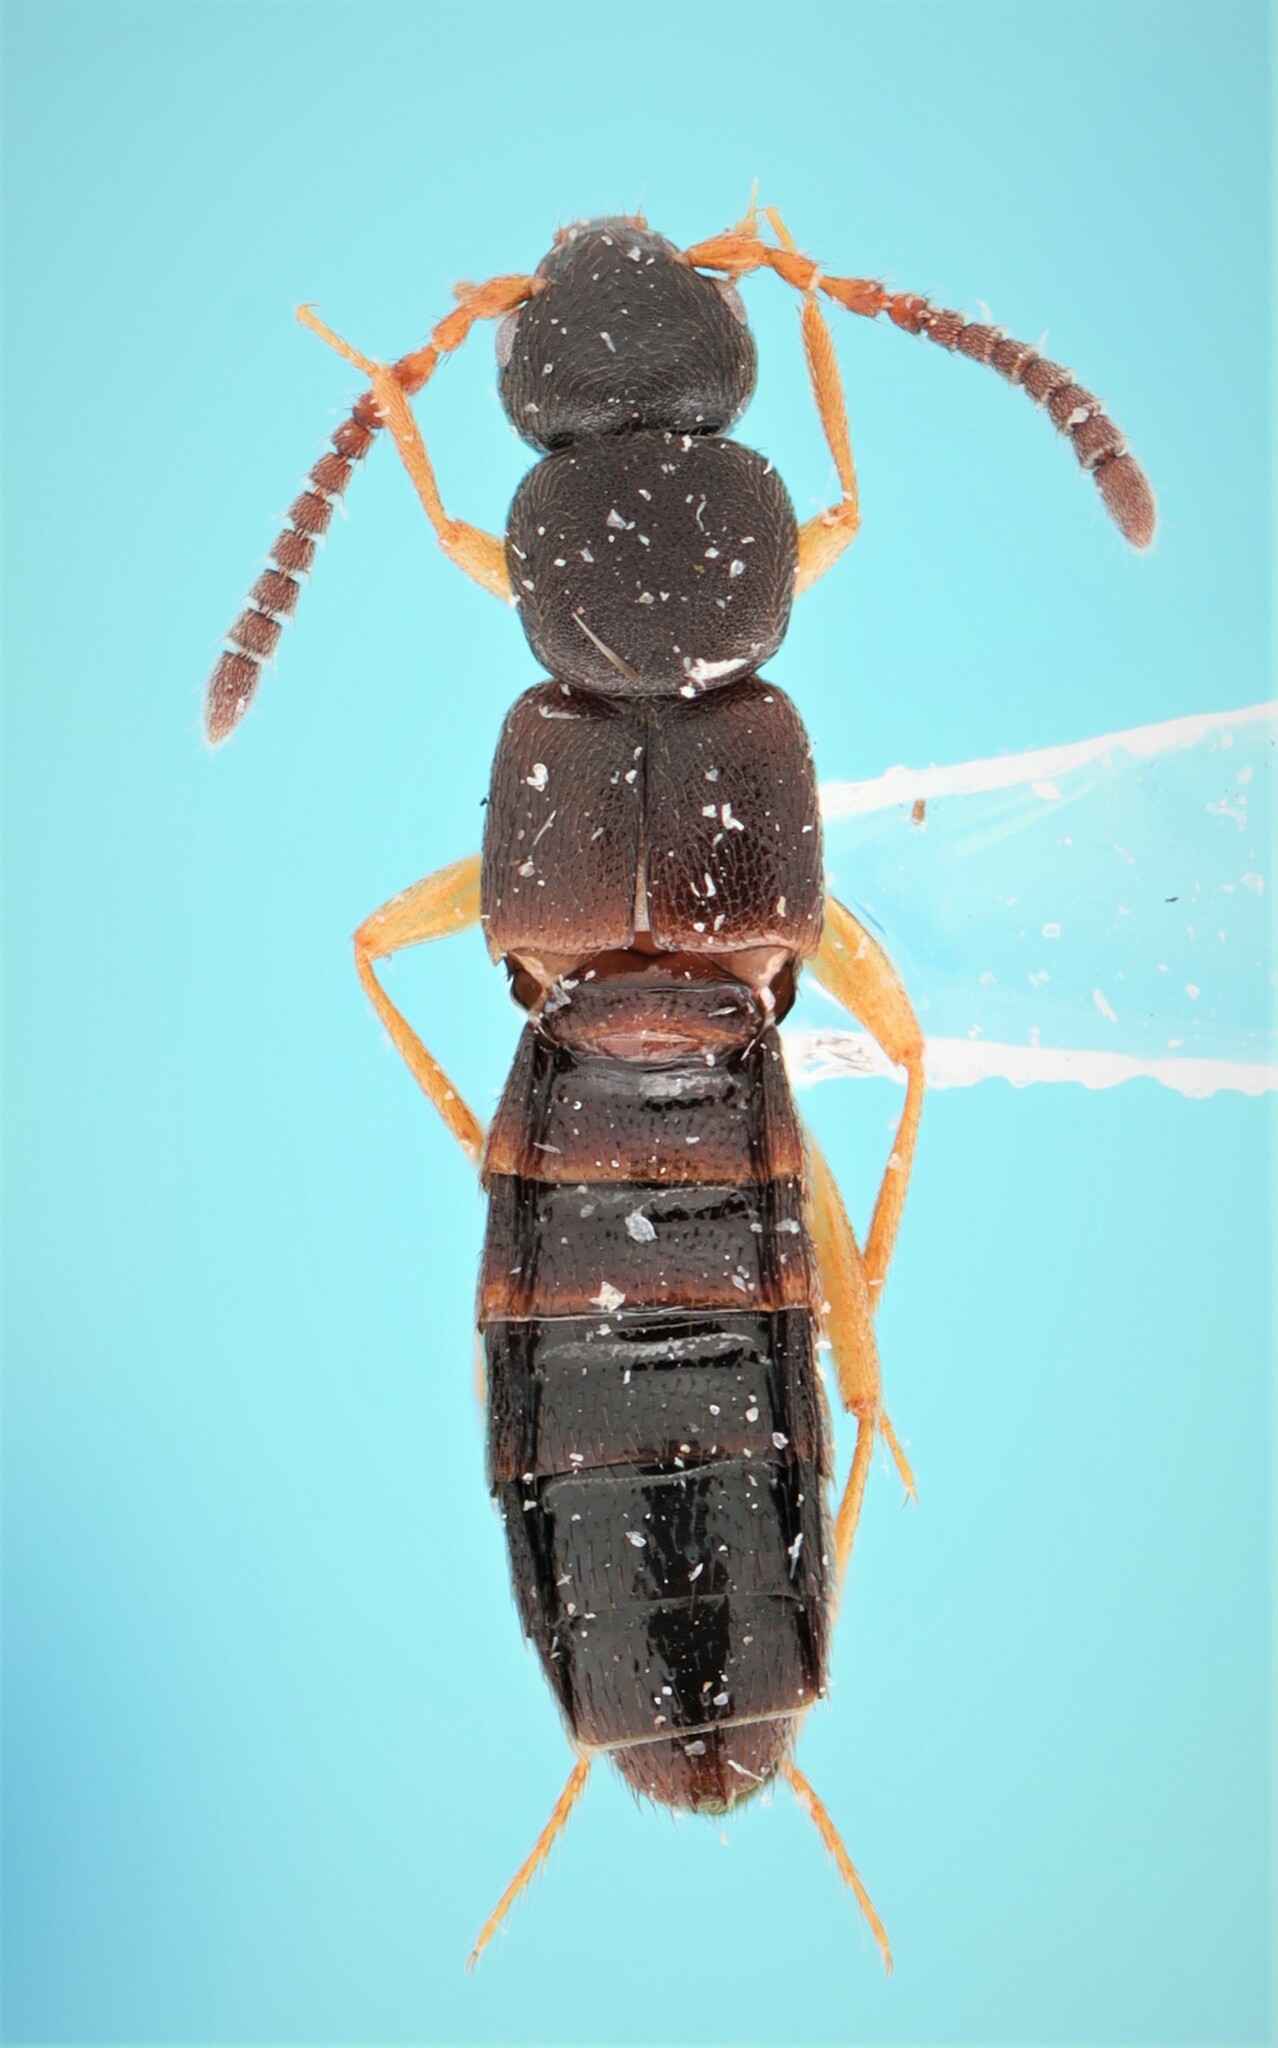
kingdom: Animalia
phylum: Arthropoda
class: Insecta
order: Coleoptera
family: Staphylinidae
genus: Dinaraea
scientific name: Dinaraea bicornis
